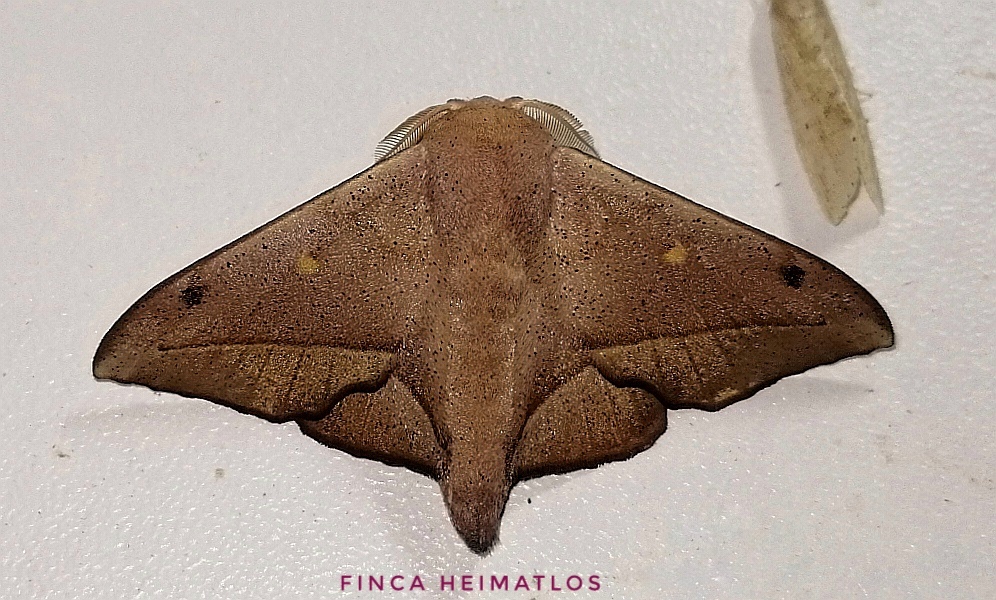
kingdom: Animalia
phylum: Arthropoda
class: Insecta
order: Lepidoptera
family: Mimallonidae
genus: Druentica
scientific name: Druentica partha
